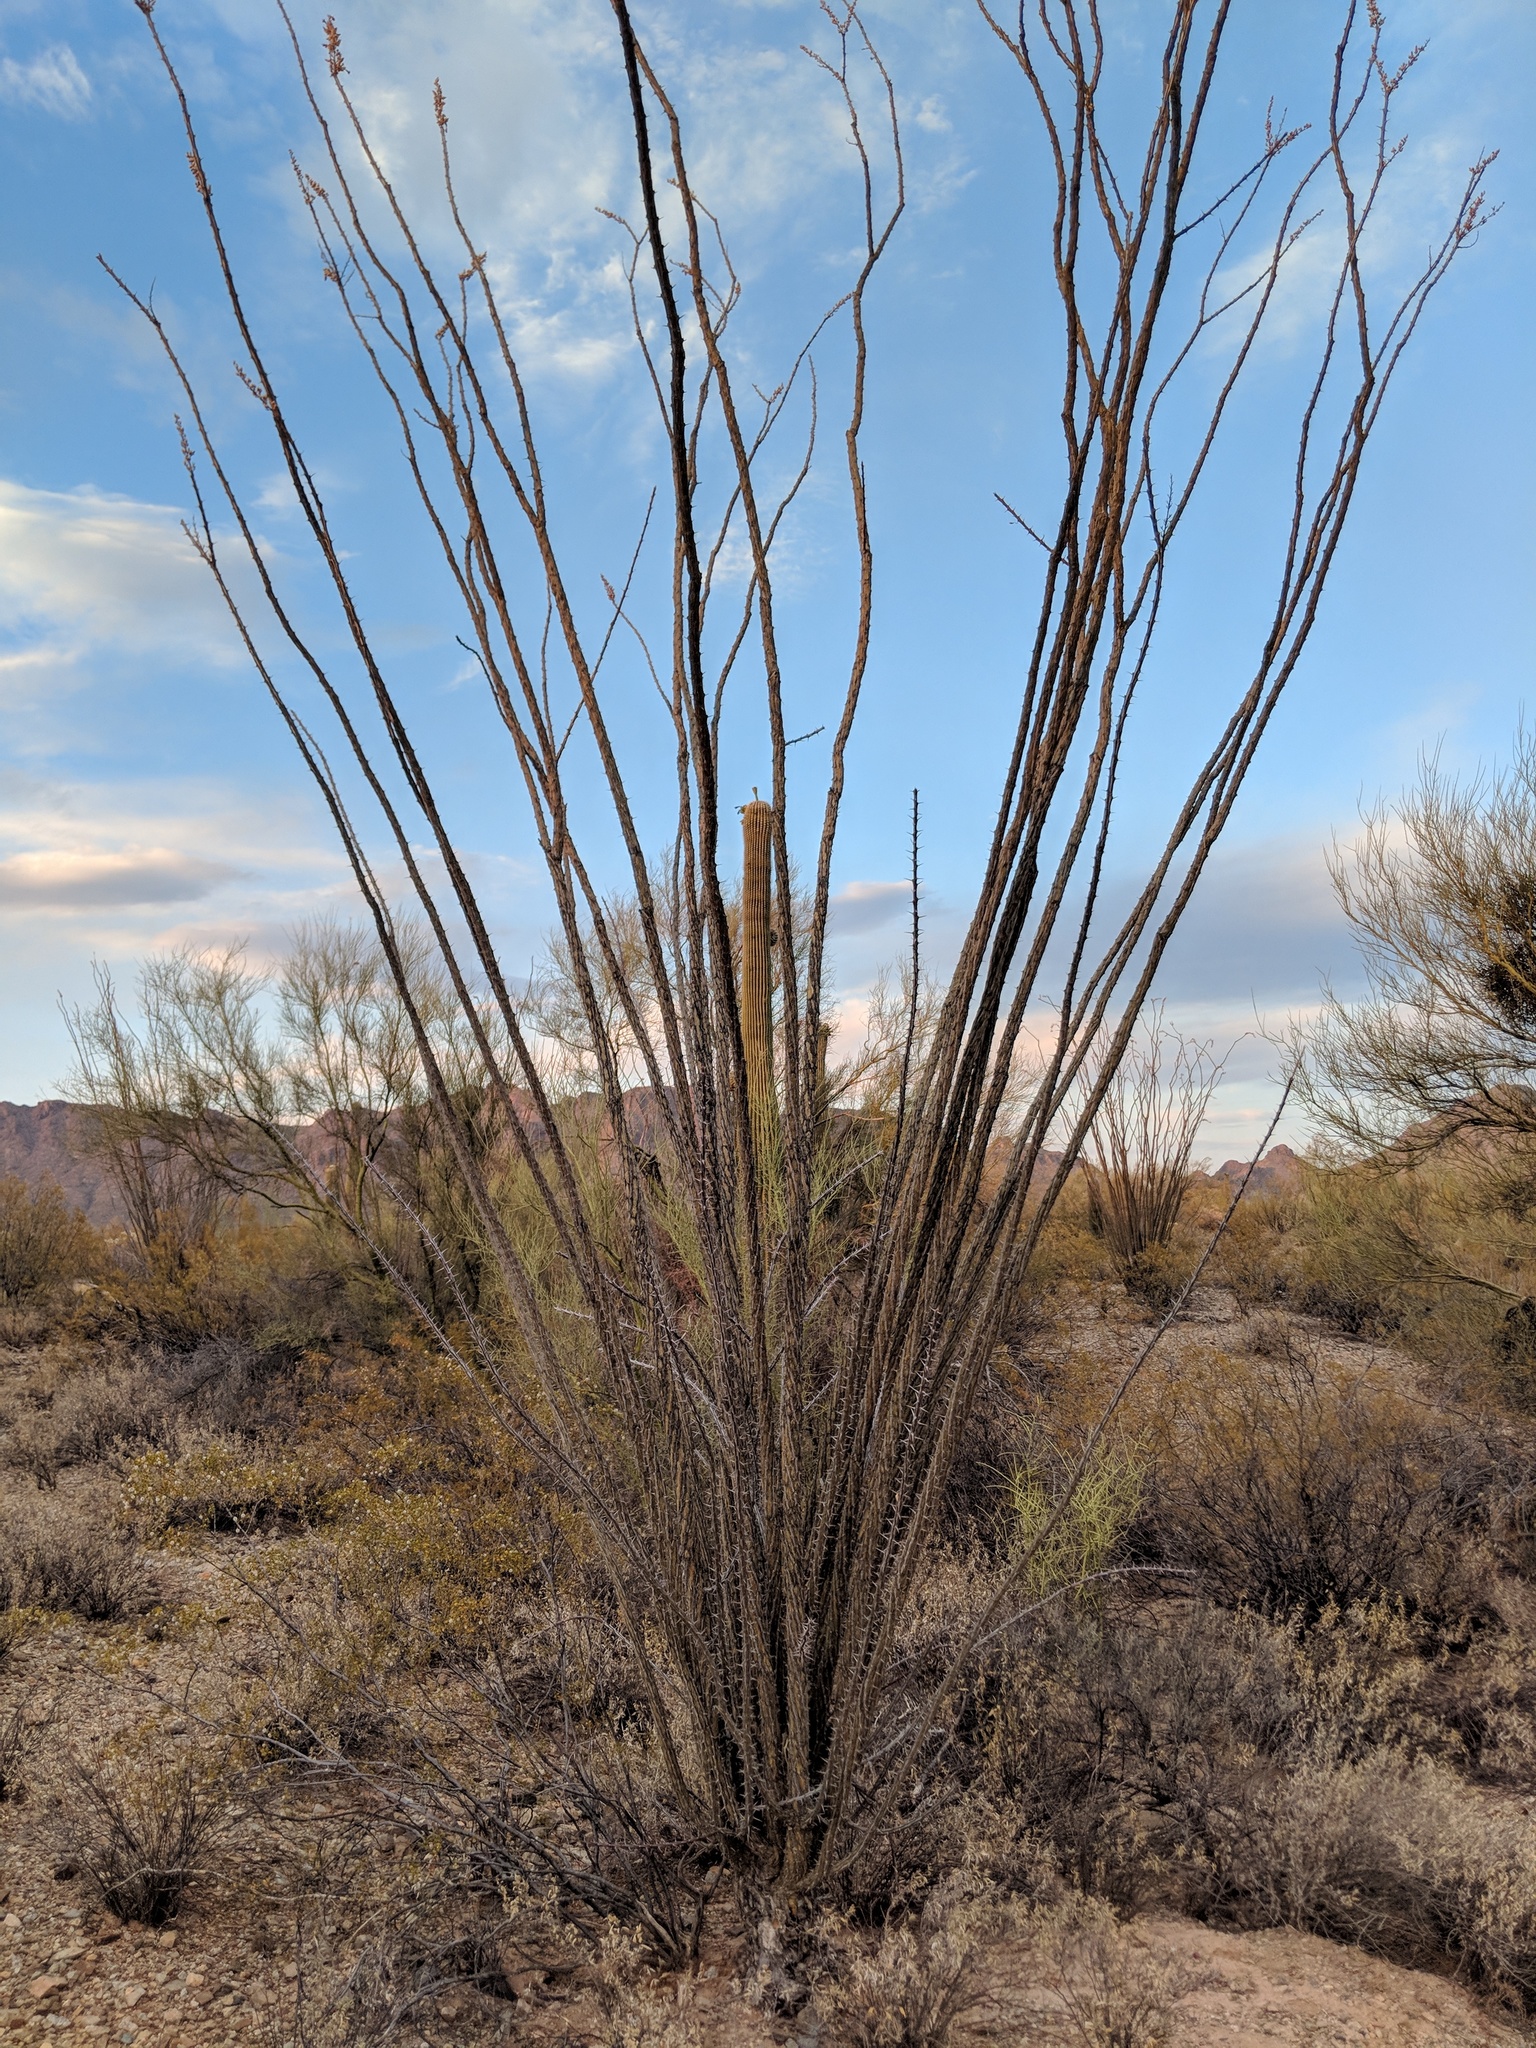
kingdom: Plantae
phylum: Tracheophyta
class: Magnoliopsida
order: Ericales
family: Fouquieriaceae
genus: Fouquieria
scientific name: Fouquieria splendens
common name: Vine-cactus
